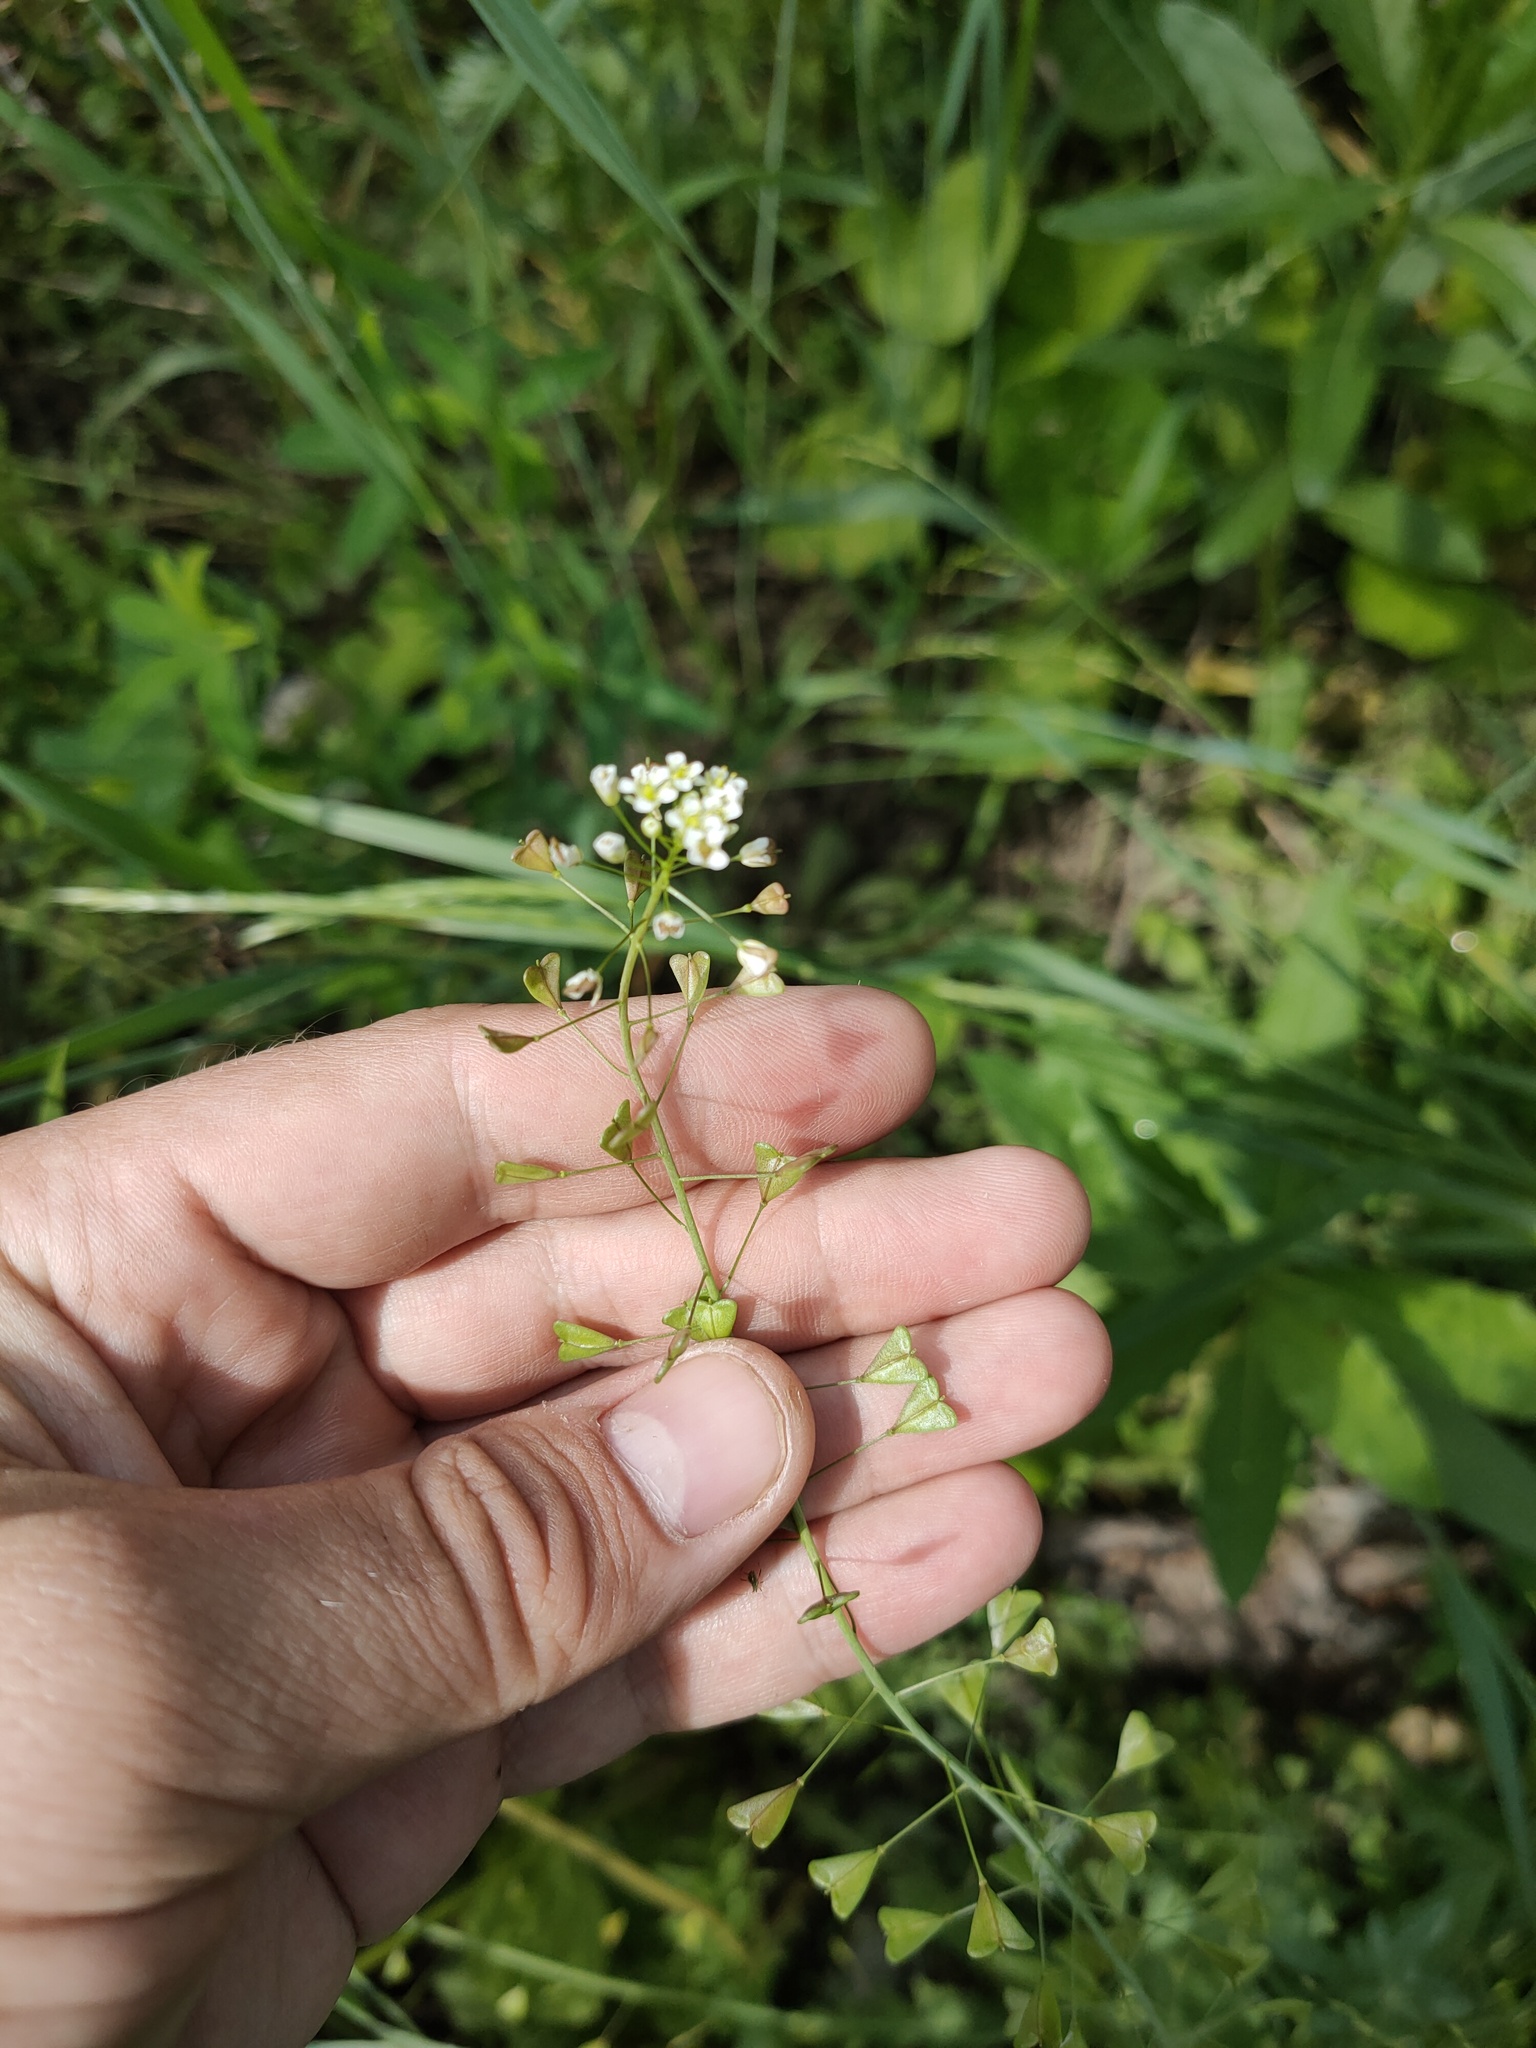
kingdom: Plantae
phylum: Tracheophyta
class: Magnoliopsida
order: Brassicales
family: Brassicaceae
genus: Capsella
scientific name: Capsella bursa-pastoris
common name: Shepherd's purse
